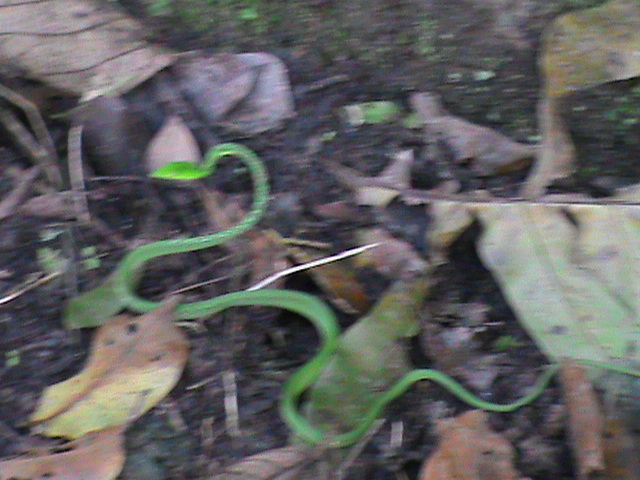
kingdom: Animalia
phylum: Chordata
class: Squamata
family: Colubridae
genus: Ahaetulla
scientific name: Ahaetulla isabellina
